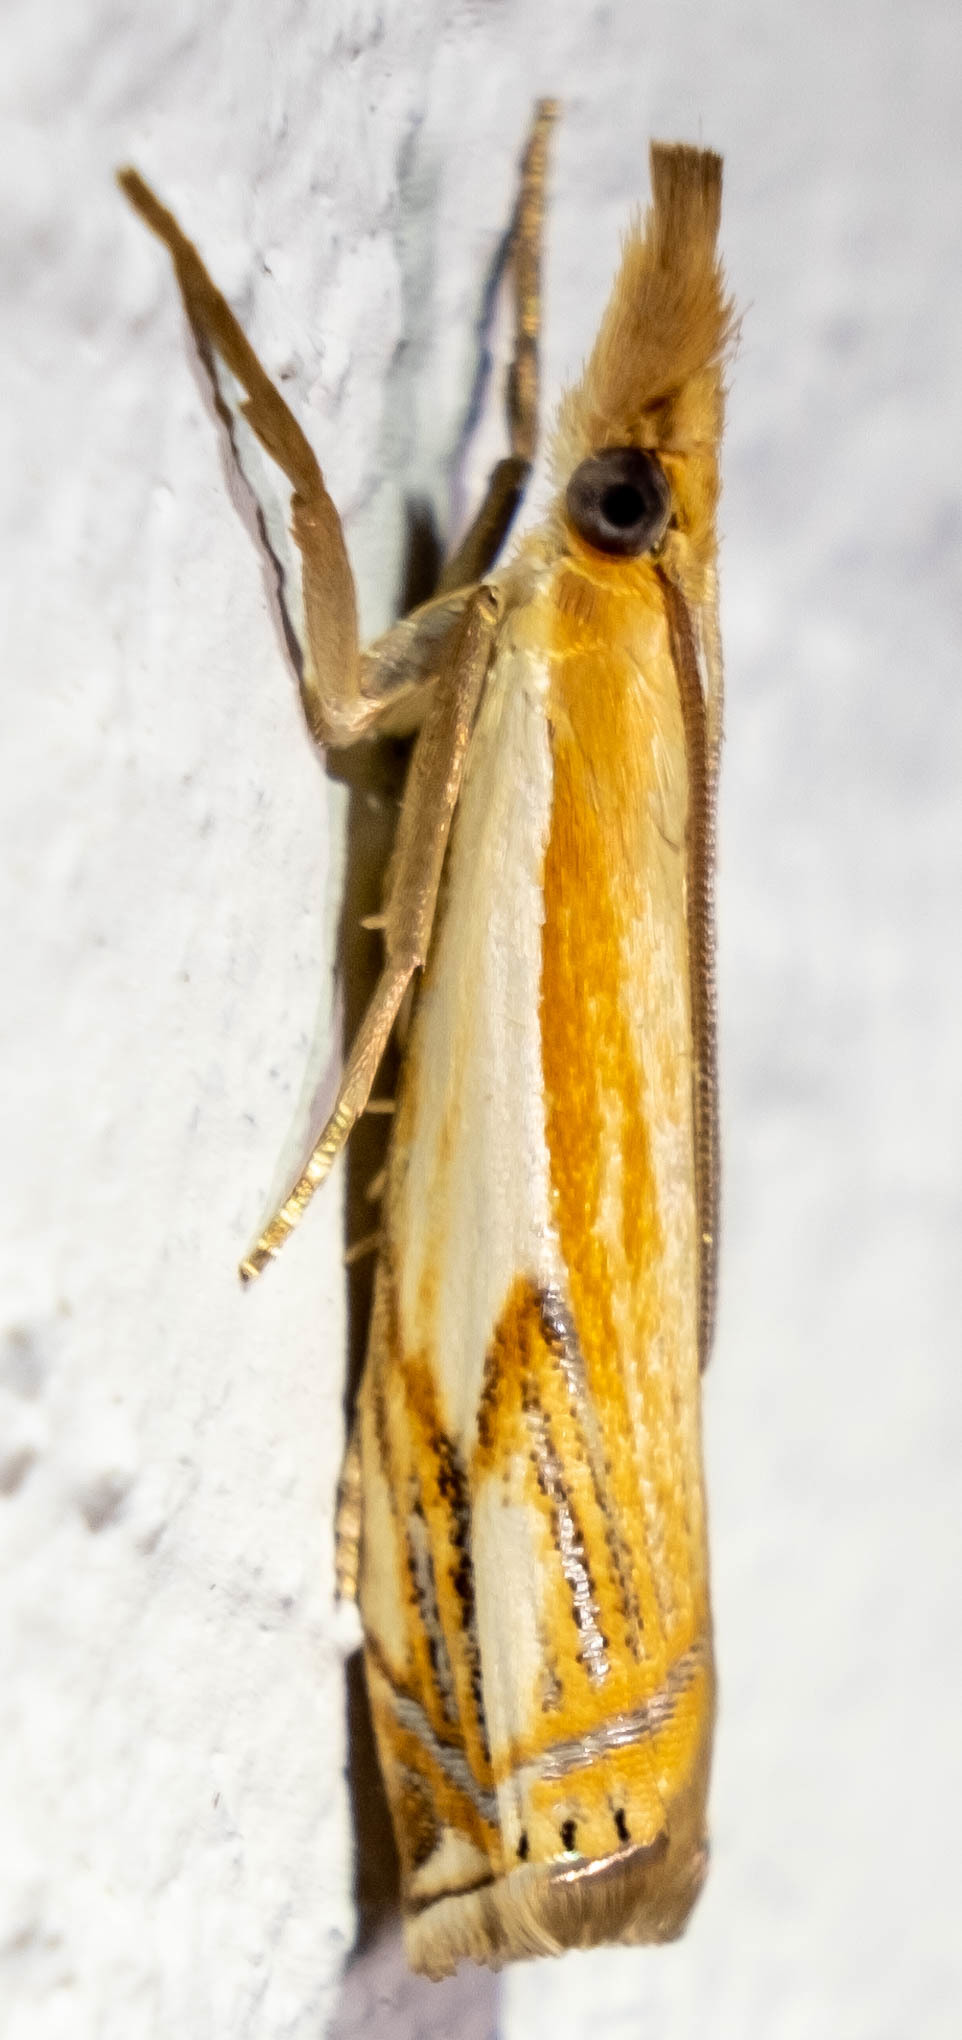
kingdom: Animalia
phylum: Arthropoda
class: Insecta
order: Lepidoptera
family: Crambidae
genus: Crambus
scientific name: Crambus agitatellus
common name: Double-banded grass-veneer
